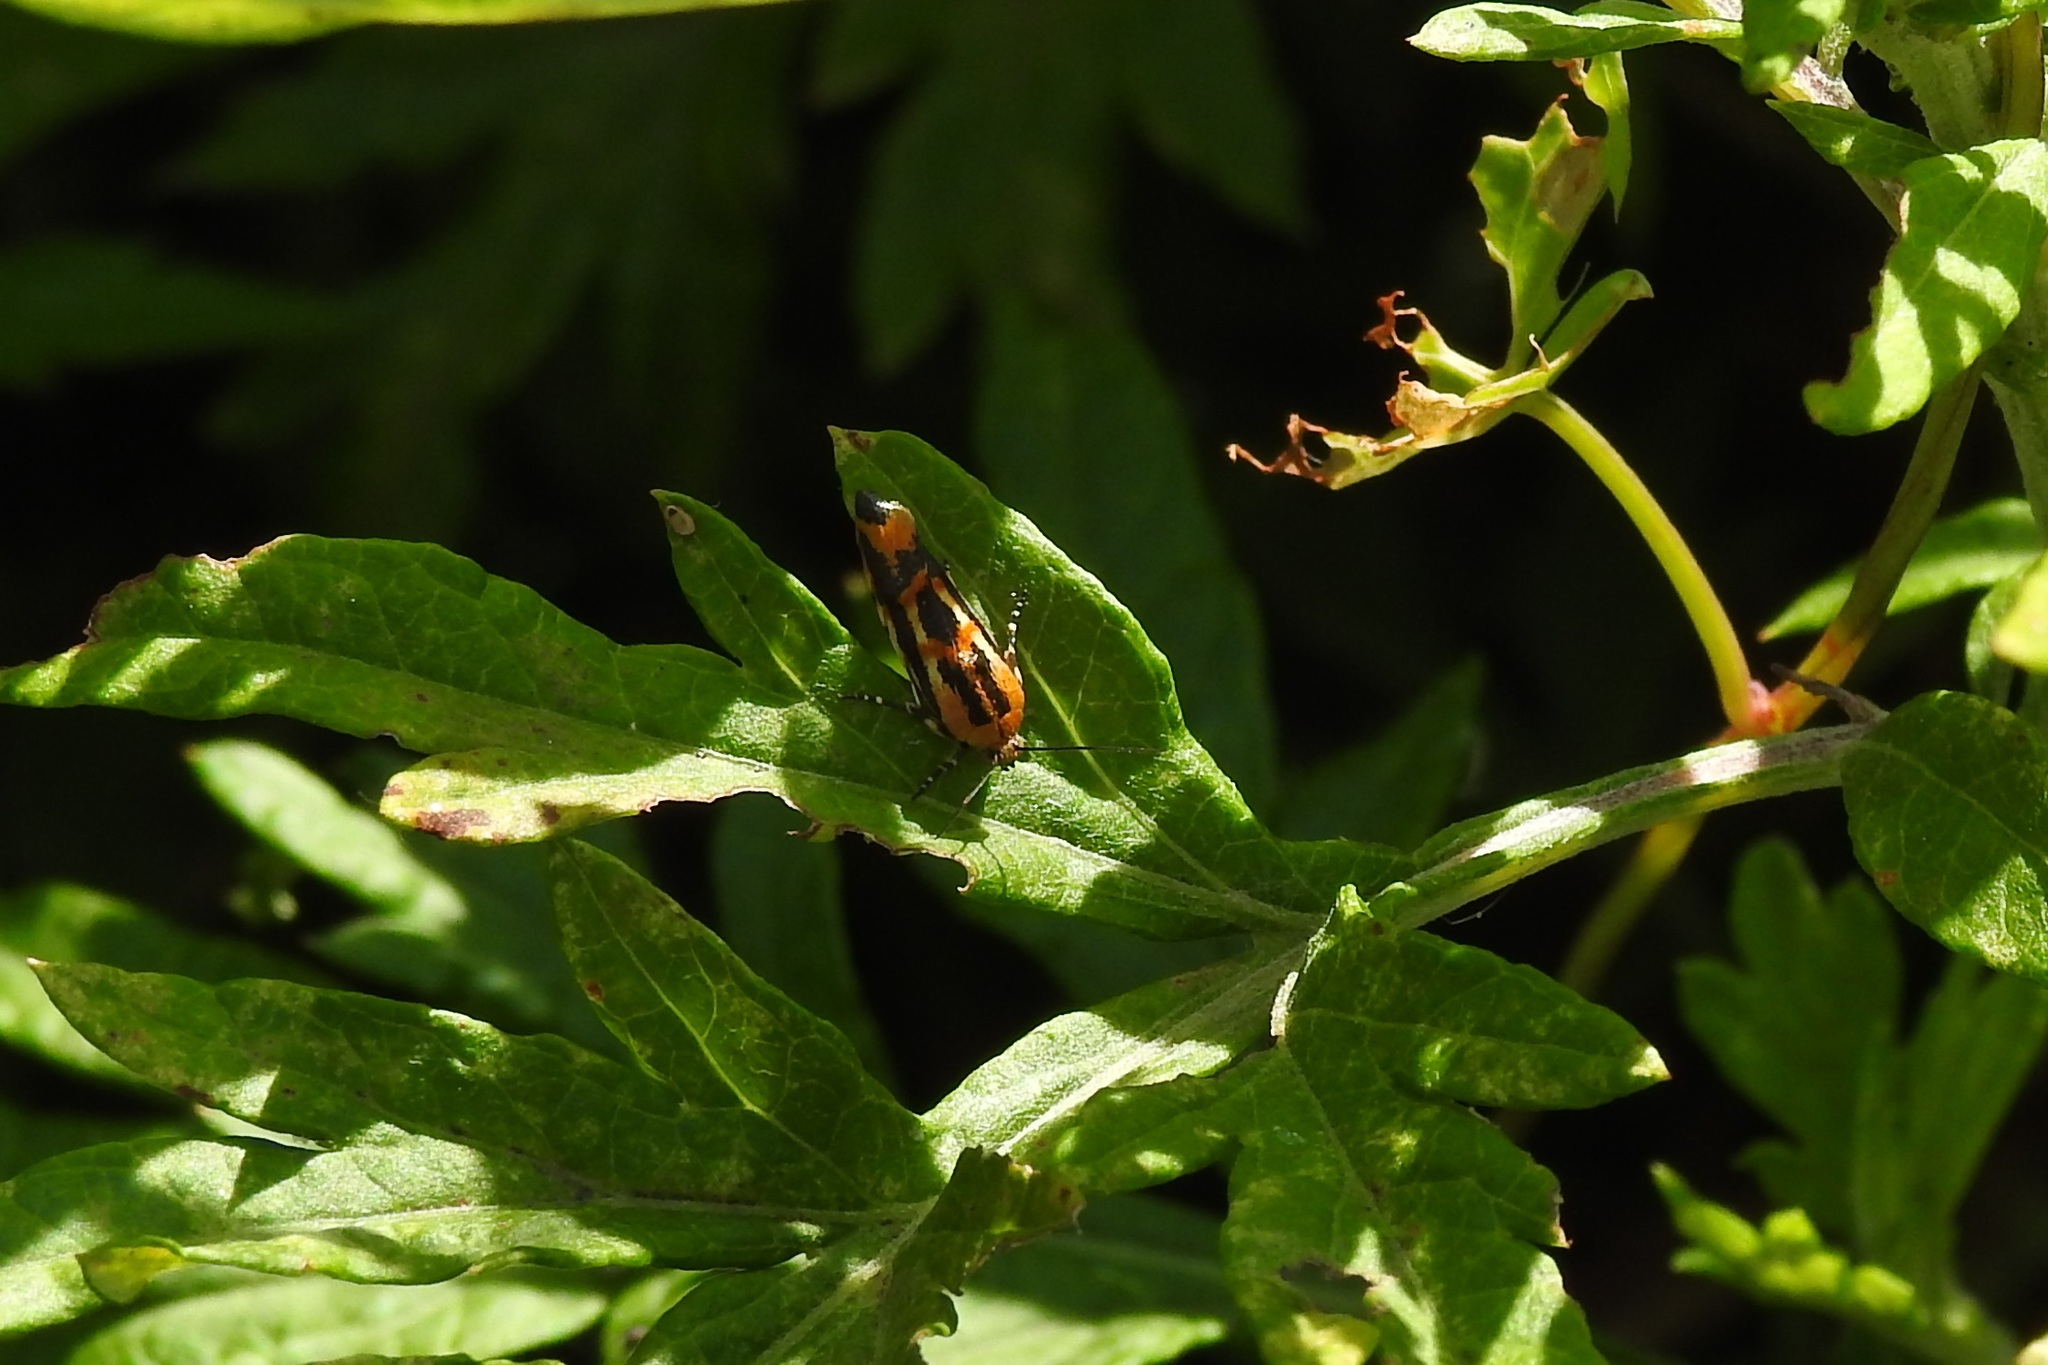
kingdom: Animalia
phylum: Arthropoda
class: Insecta
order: Lepidoptera
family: Noctuidae
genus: Acontia
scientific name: Acontia leo
